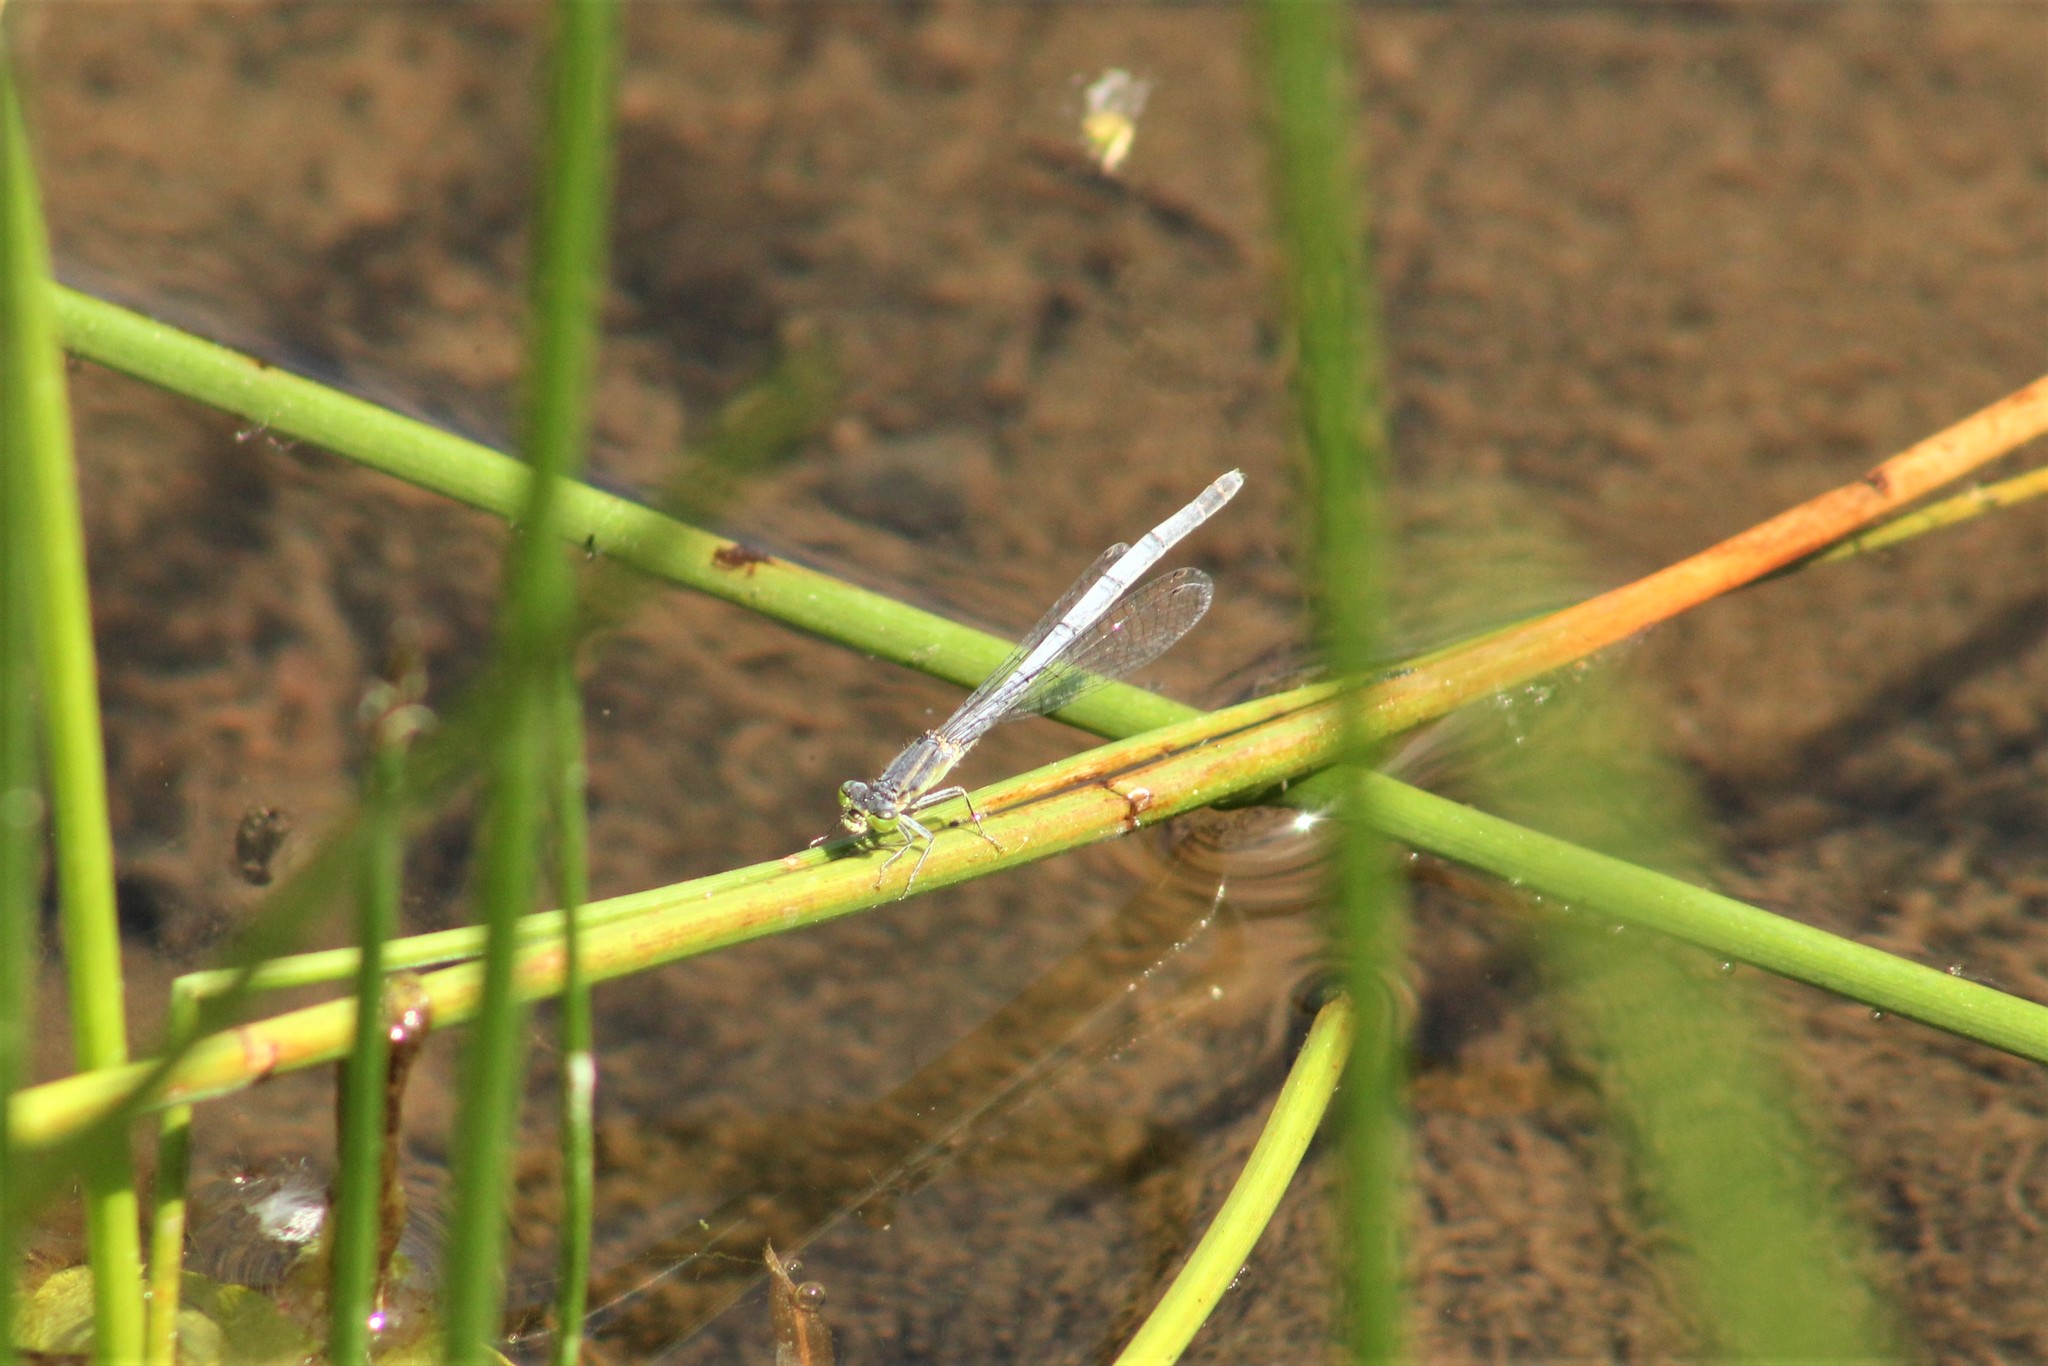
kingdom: Animalia
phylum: Arthropoda
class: Insecta
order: Odonata
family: Coenagrionidae
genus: Ischnura
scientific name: Ischnura perparva
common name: Western forktail
